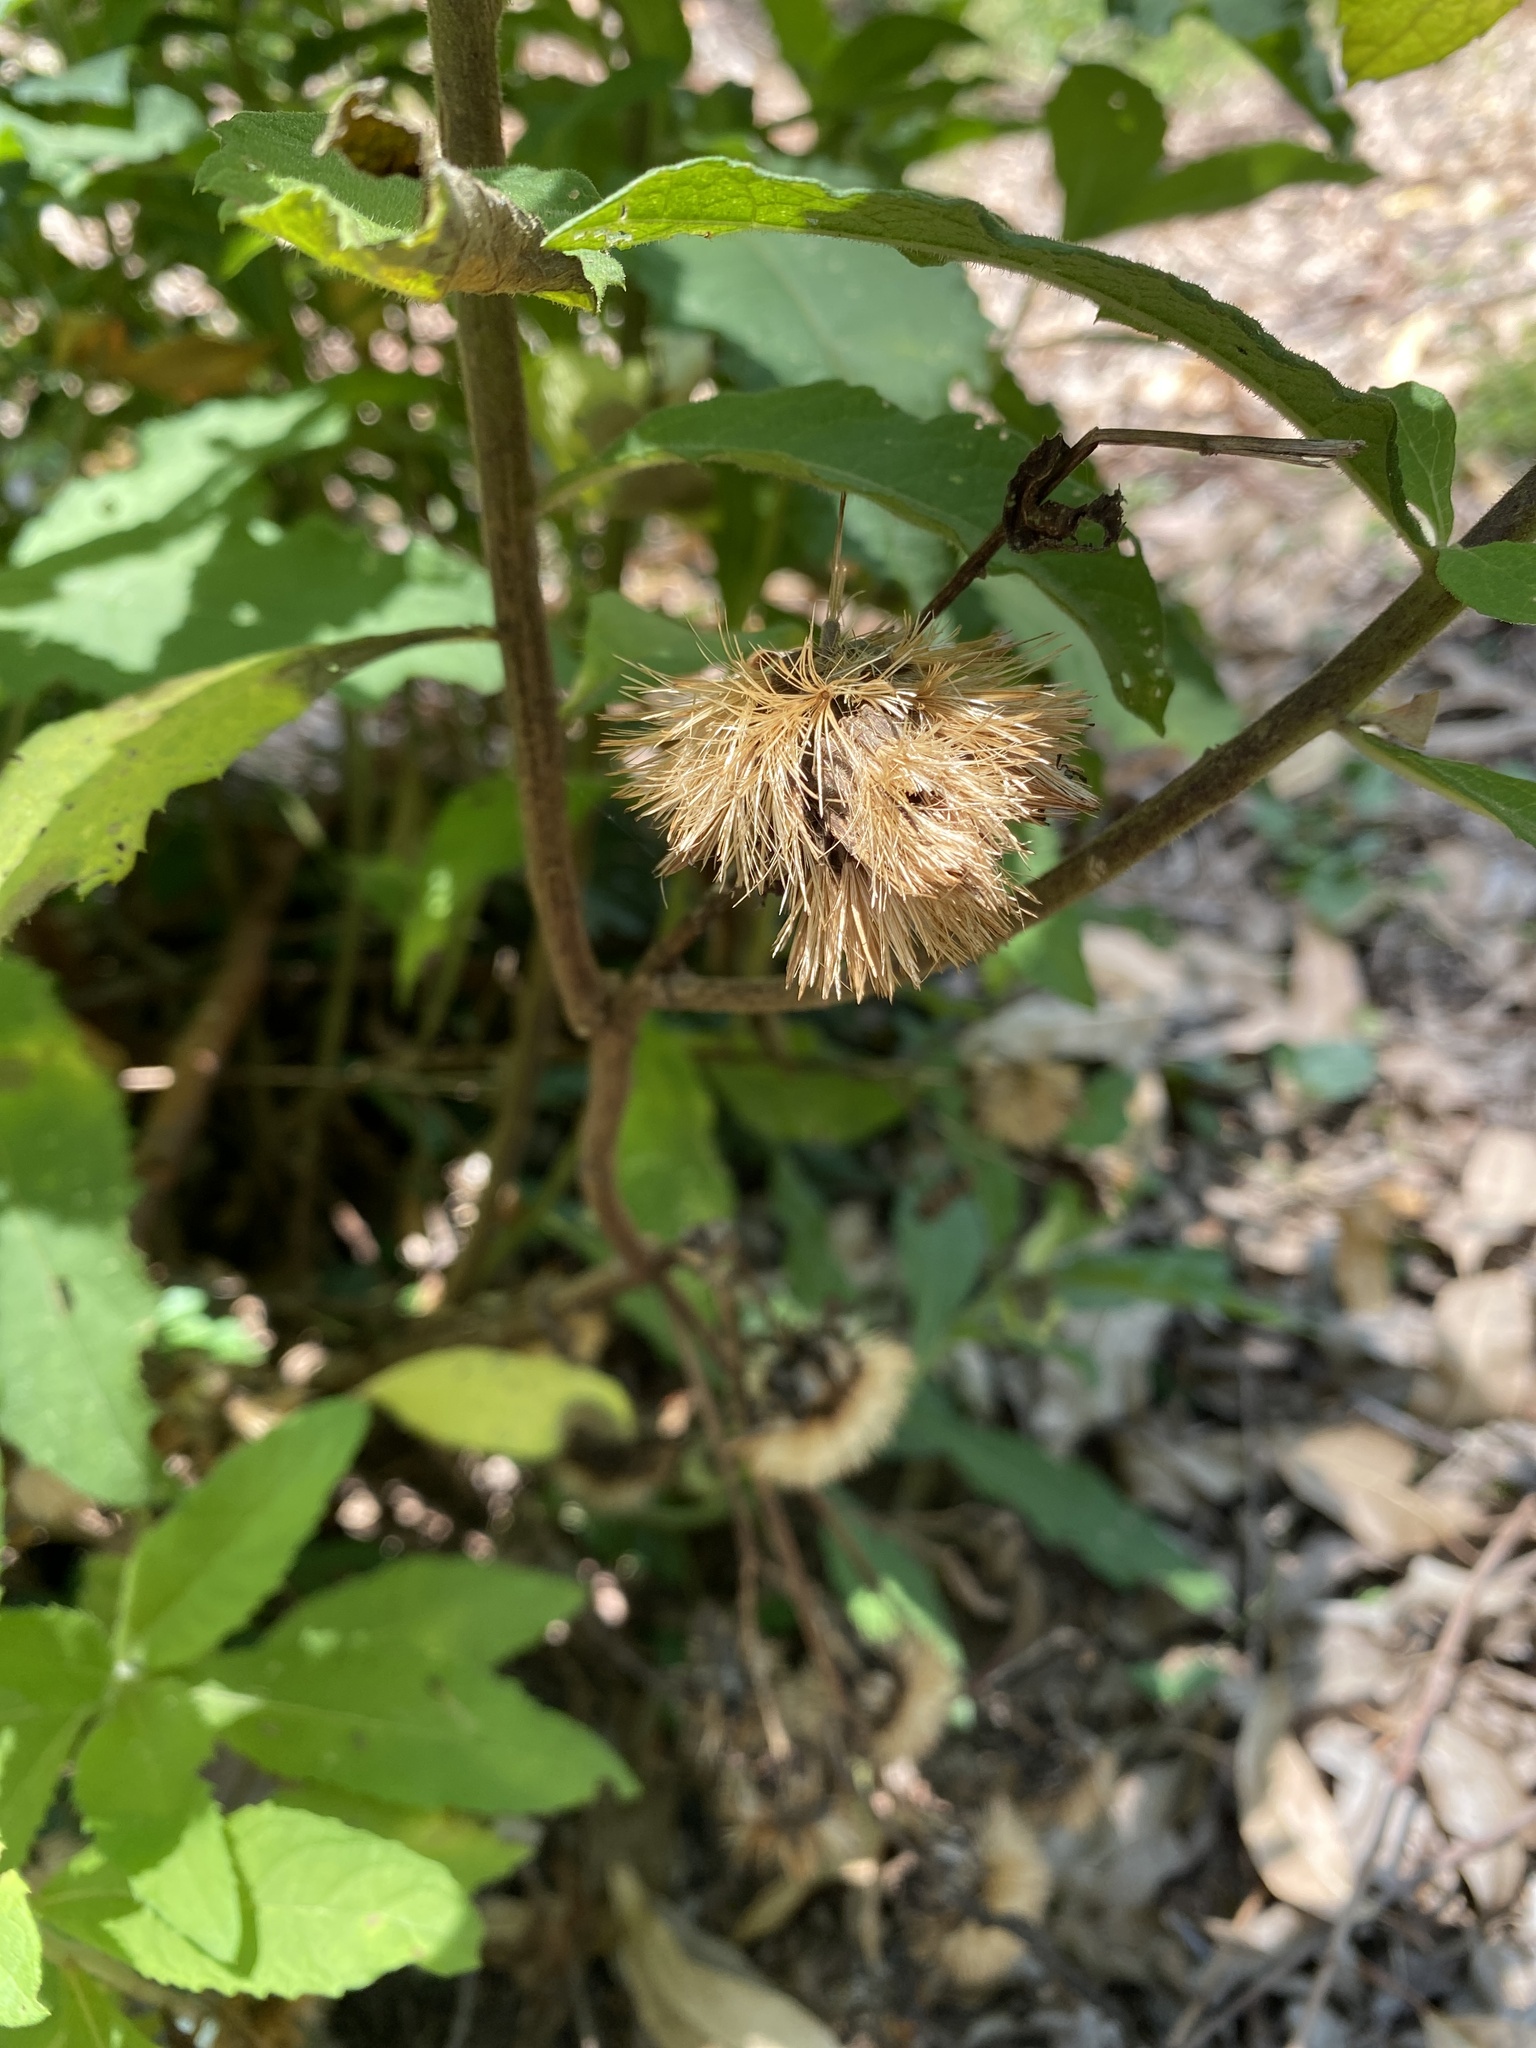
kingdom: Plantae
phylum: Tracheophyta
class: Magnoliopsida
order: Asterales
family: Asteraceae
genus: Baccharoides
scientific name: Baccharoides adoensis
